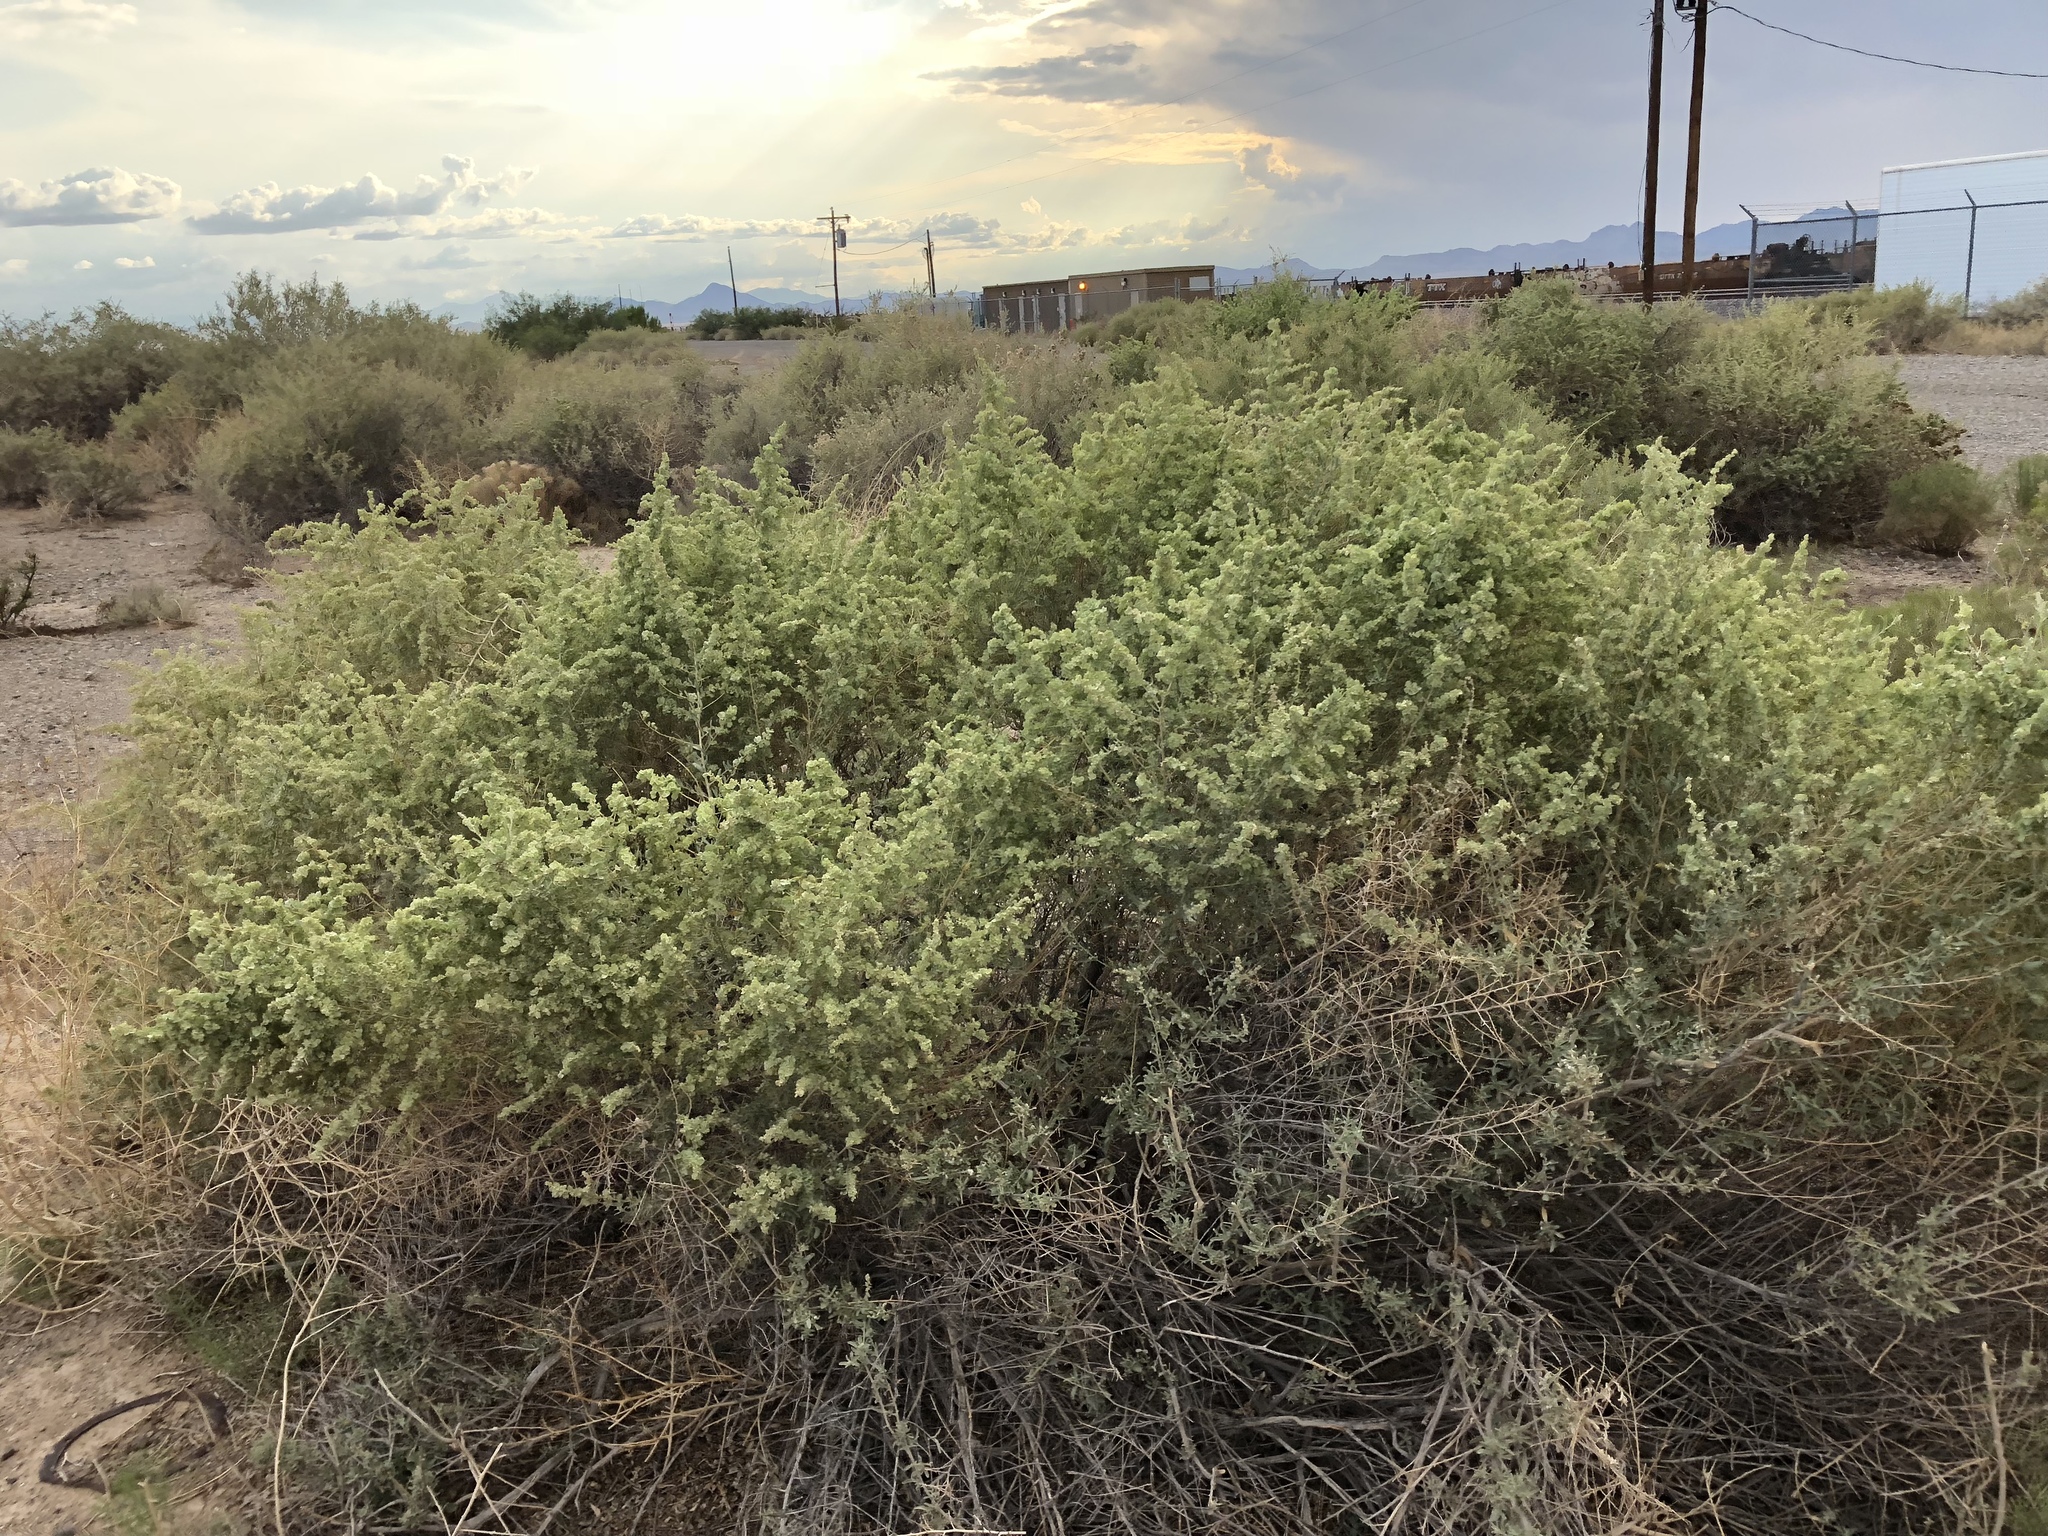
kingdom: Plantae
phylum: Tracheophyta
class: Magnoliopsida
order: Caryophyllales
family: Amaranthaceae
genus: Atriplex
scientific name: Atriplex canescens
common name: Four-wing saltbush
